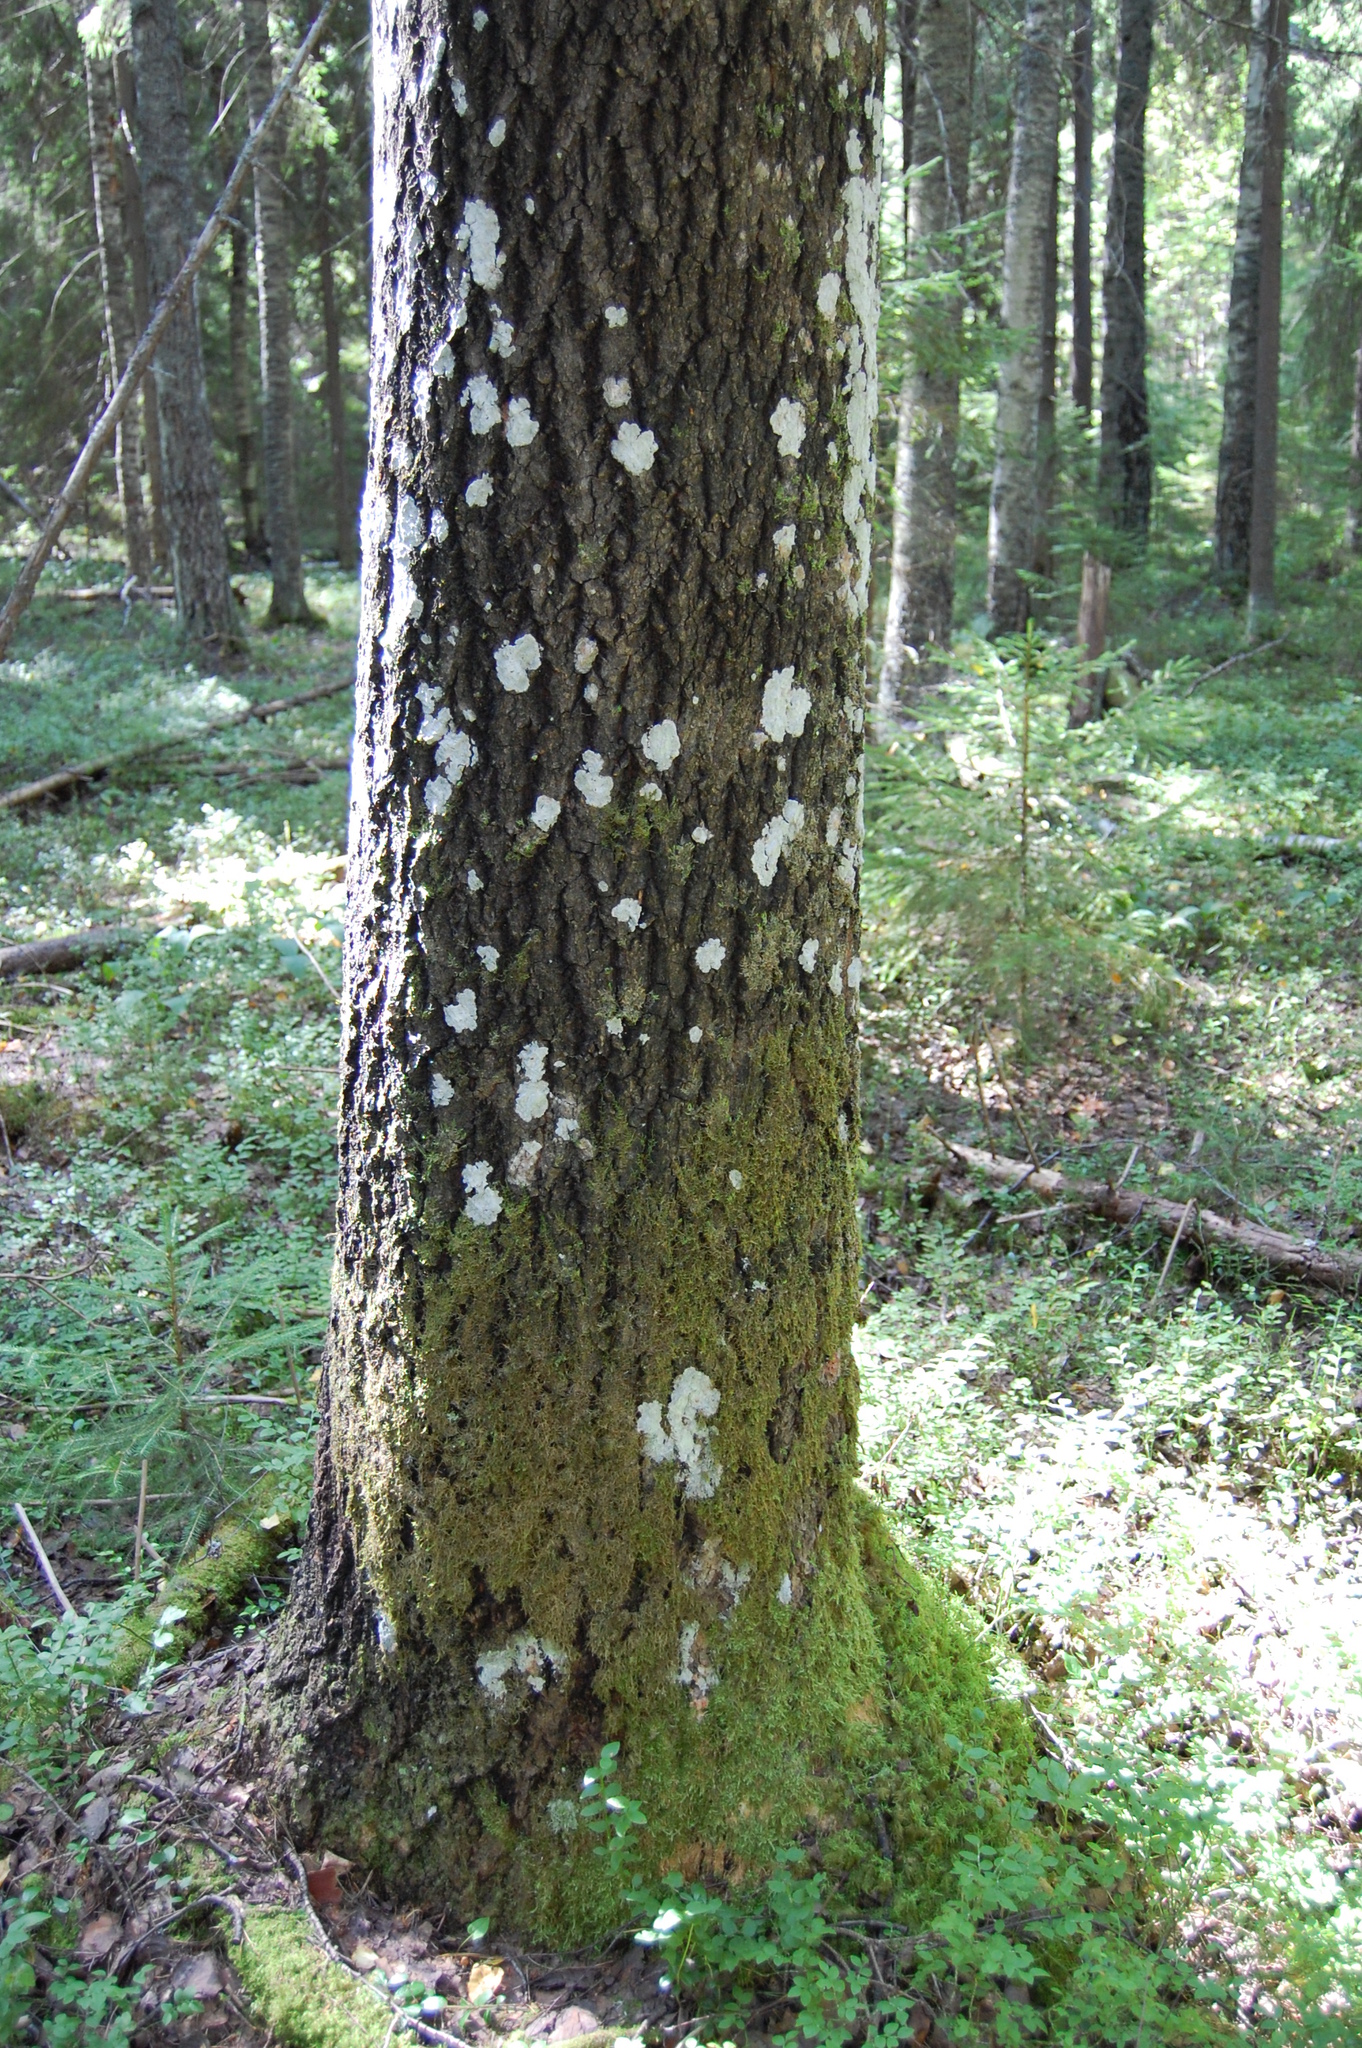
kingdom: Plantae
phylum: Tracheophyta
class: Magnoliopsida
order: Malpighiales
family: Salicaceae
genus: Populus
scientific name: Populus tremula
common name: European aspen
